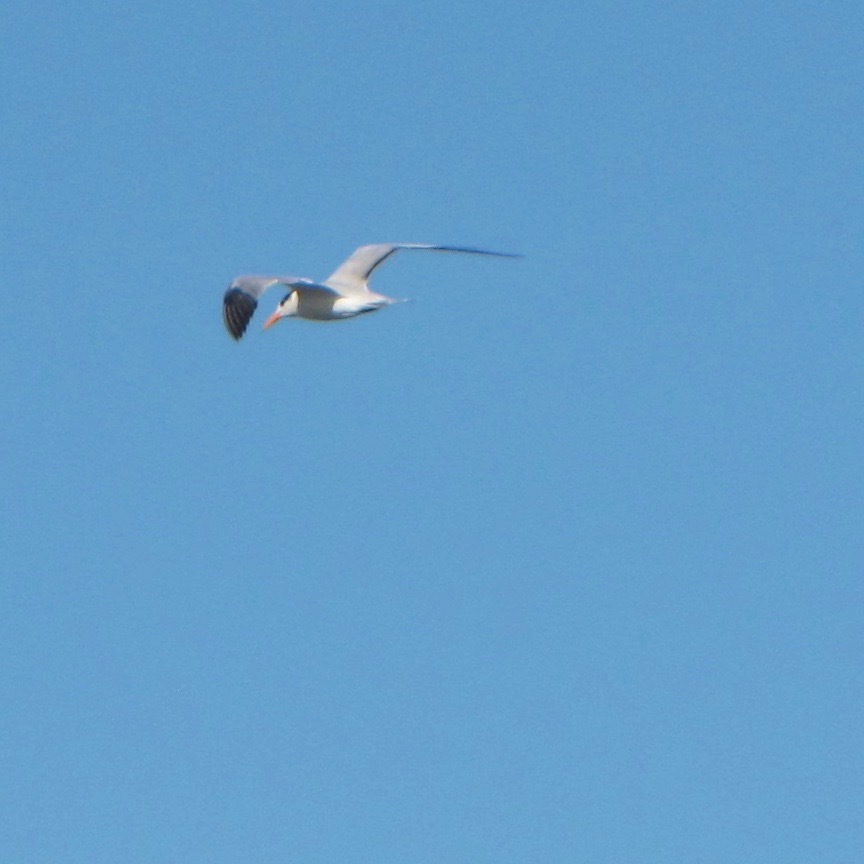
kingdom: Animalia
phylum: Chordata
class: Aves
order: Charadriiformes
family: Laridae
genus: Thalasseus
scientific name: Thalasseus maximus
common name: Royal tern
